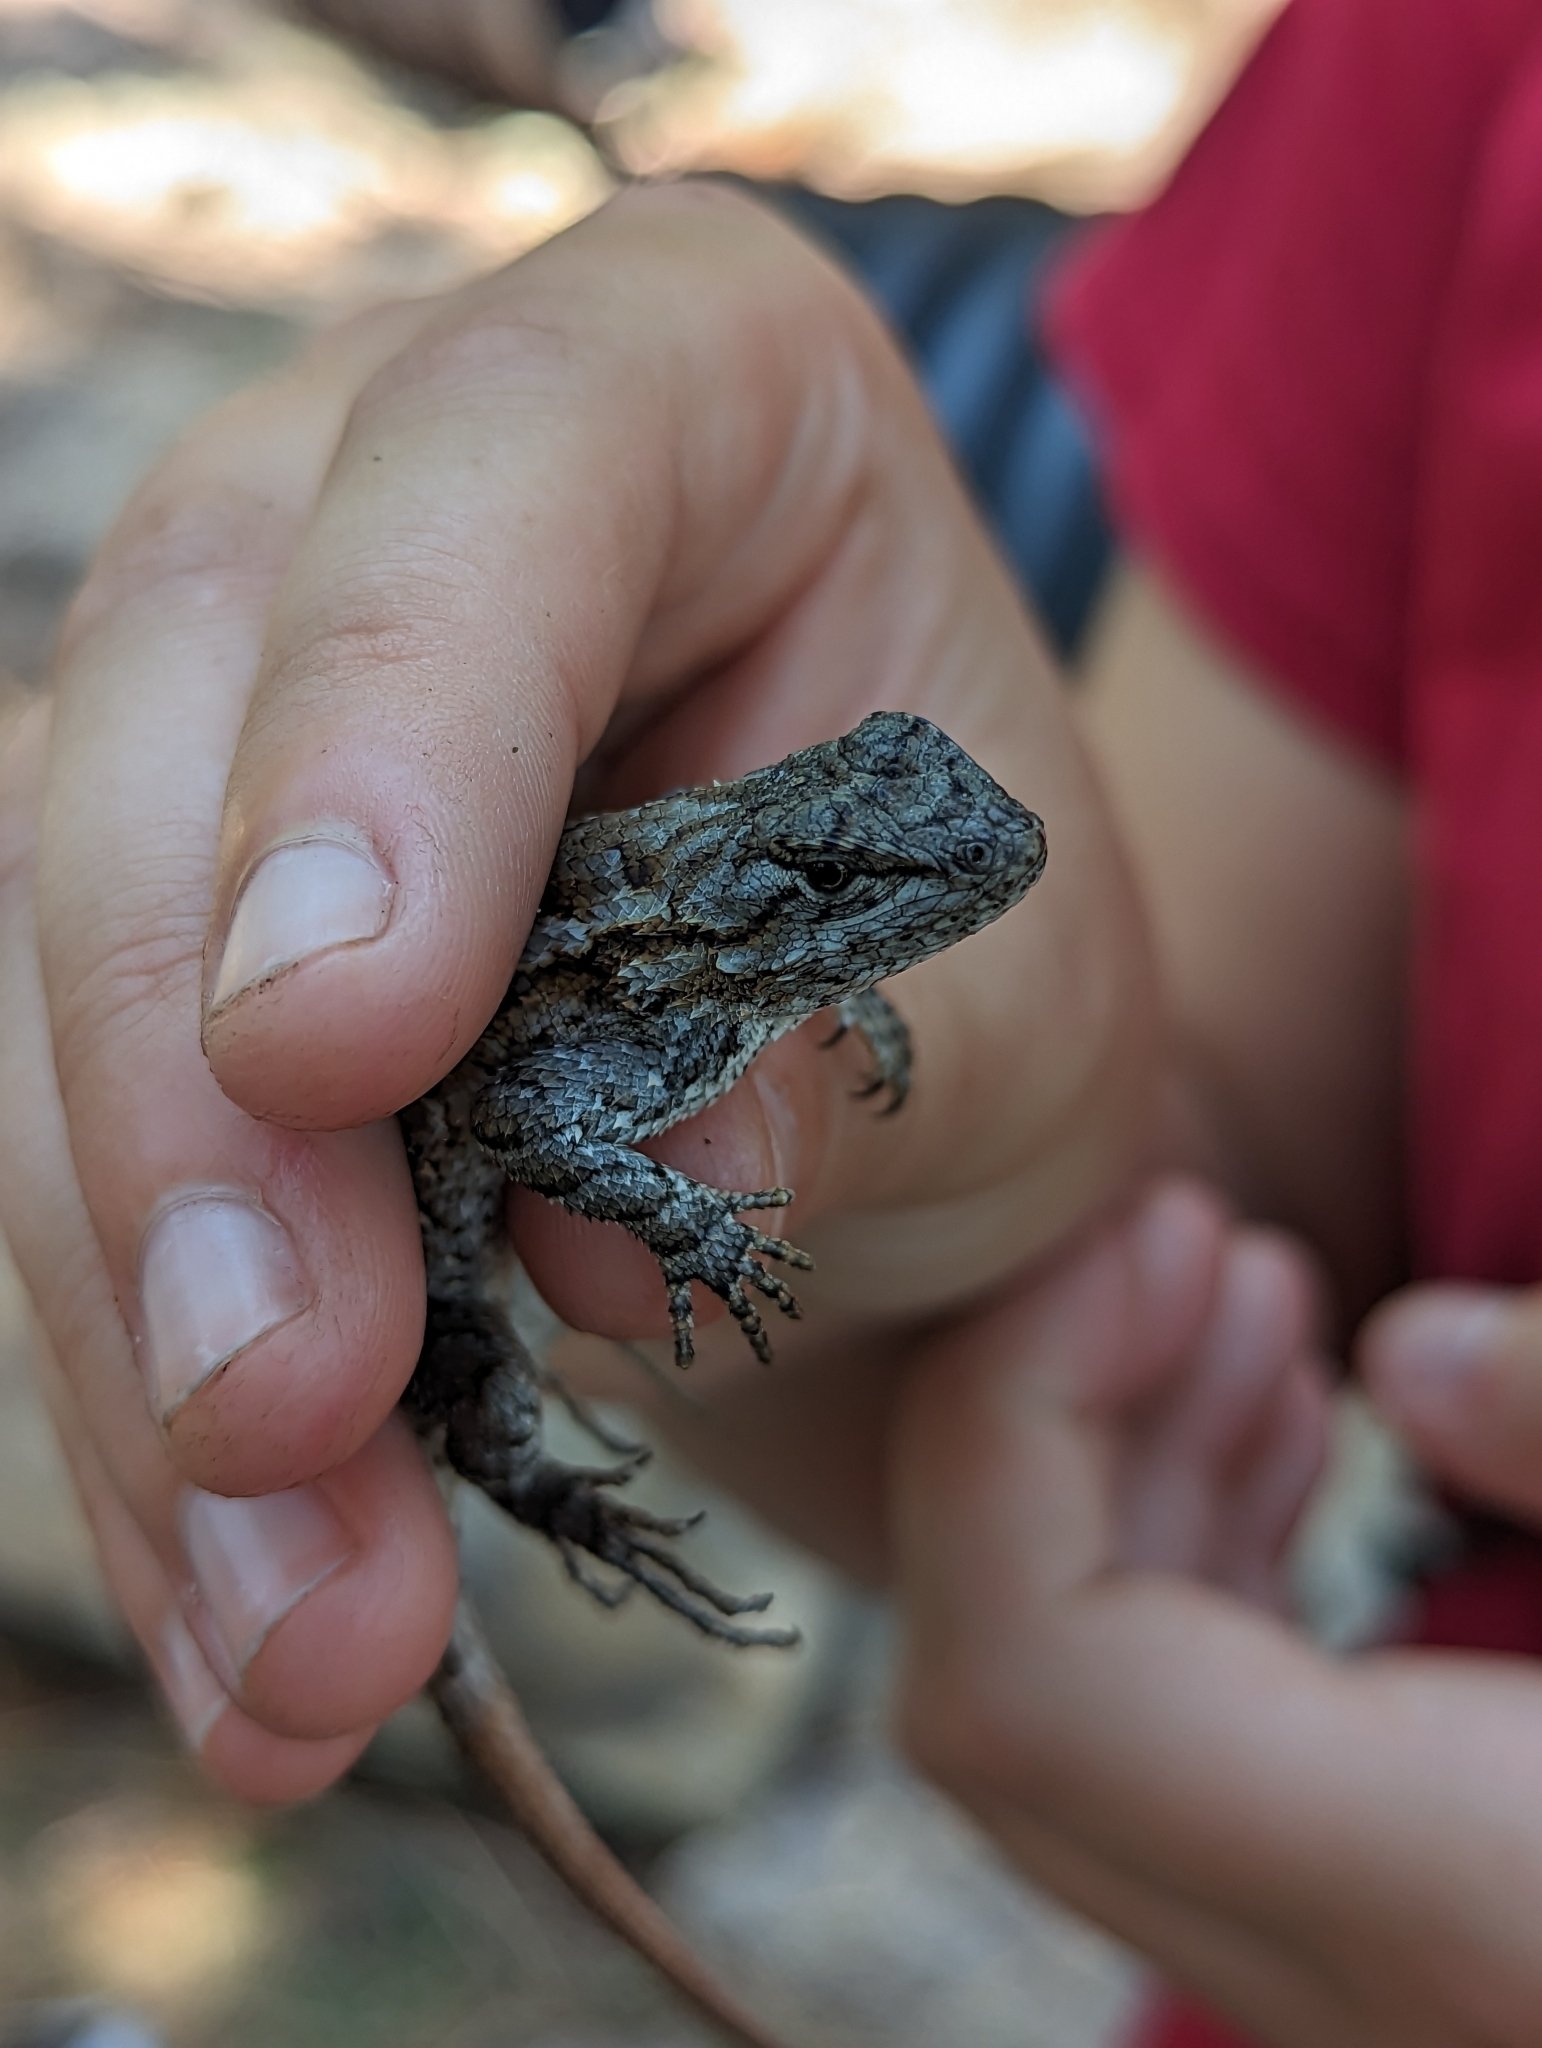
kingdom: Animalia
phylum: Chordata
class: Squamata
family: Phrynosomatidae
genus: Sceloporus
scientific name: Sceloporus undulatus
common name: Eastern fence lizard
